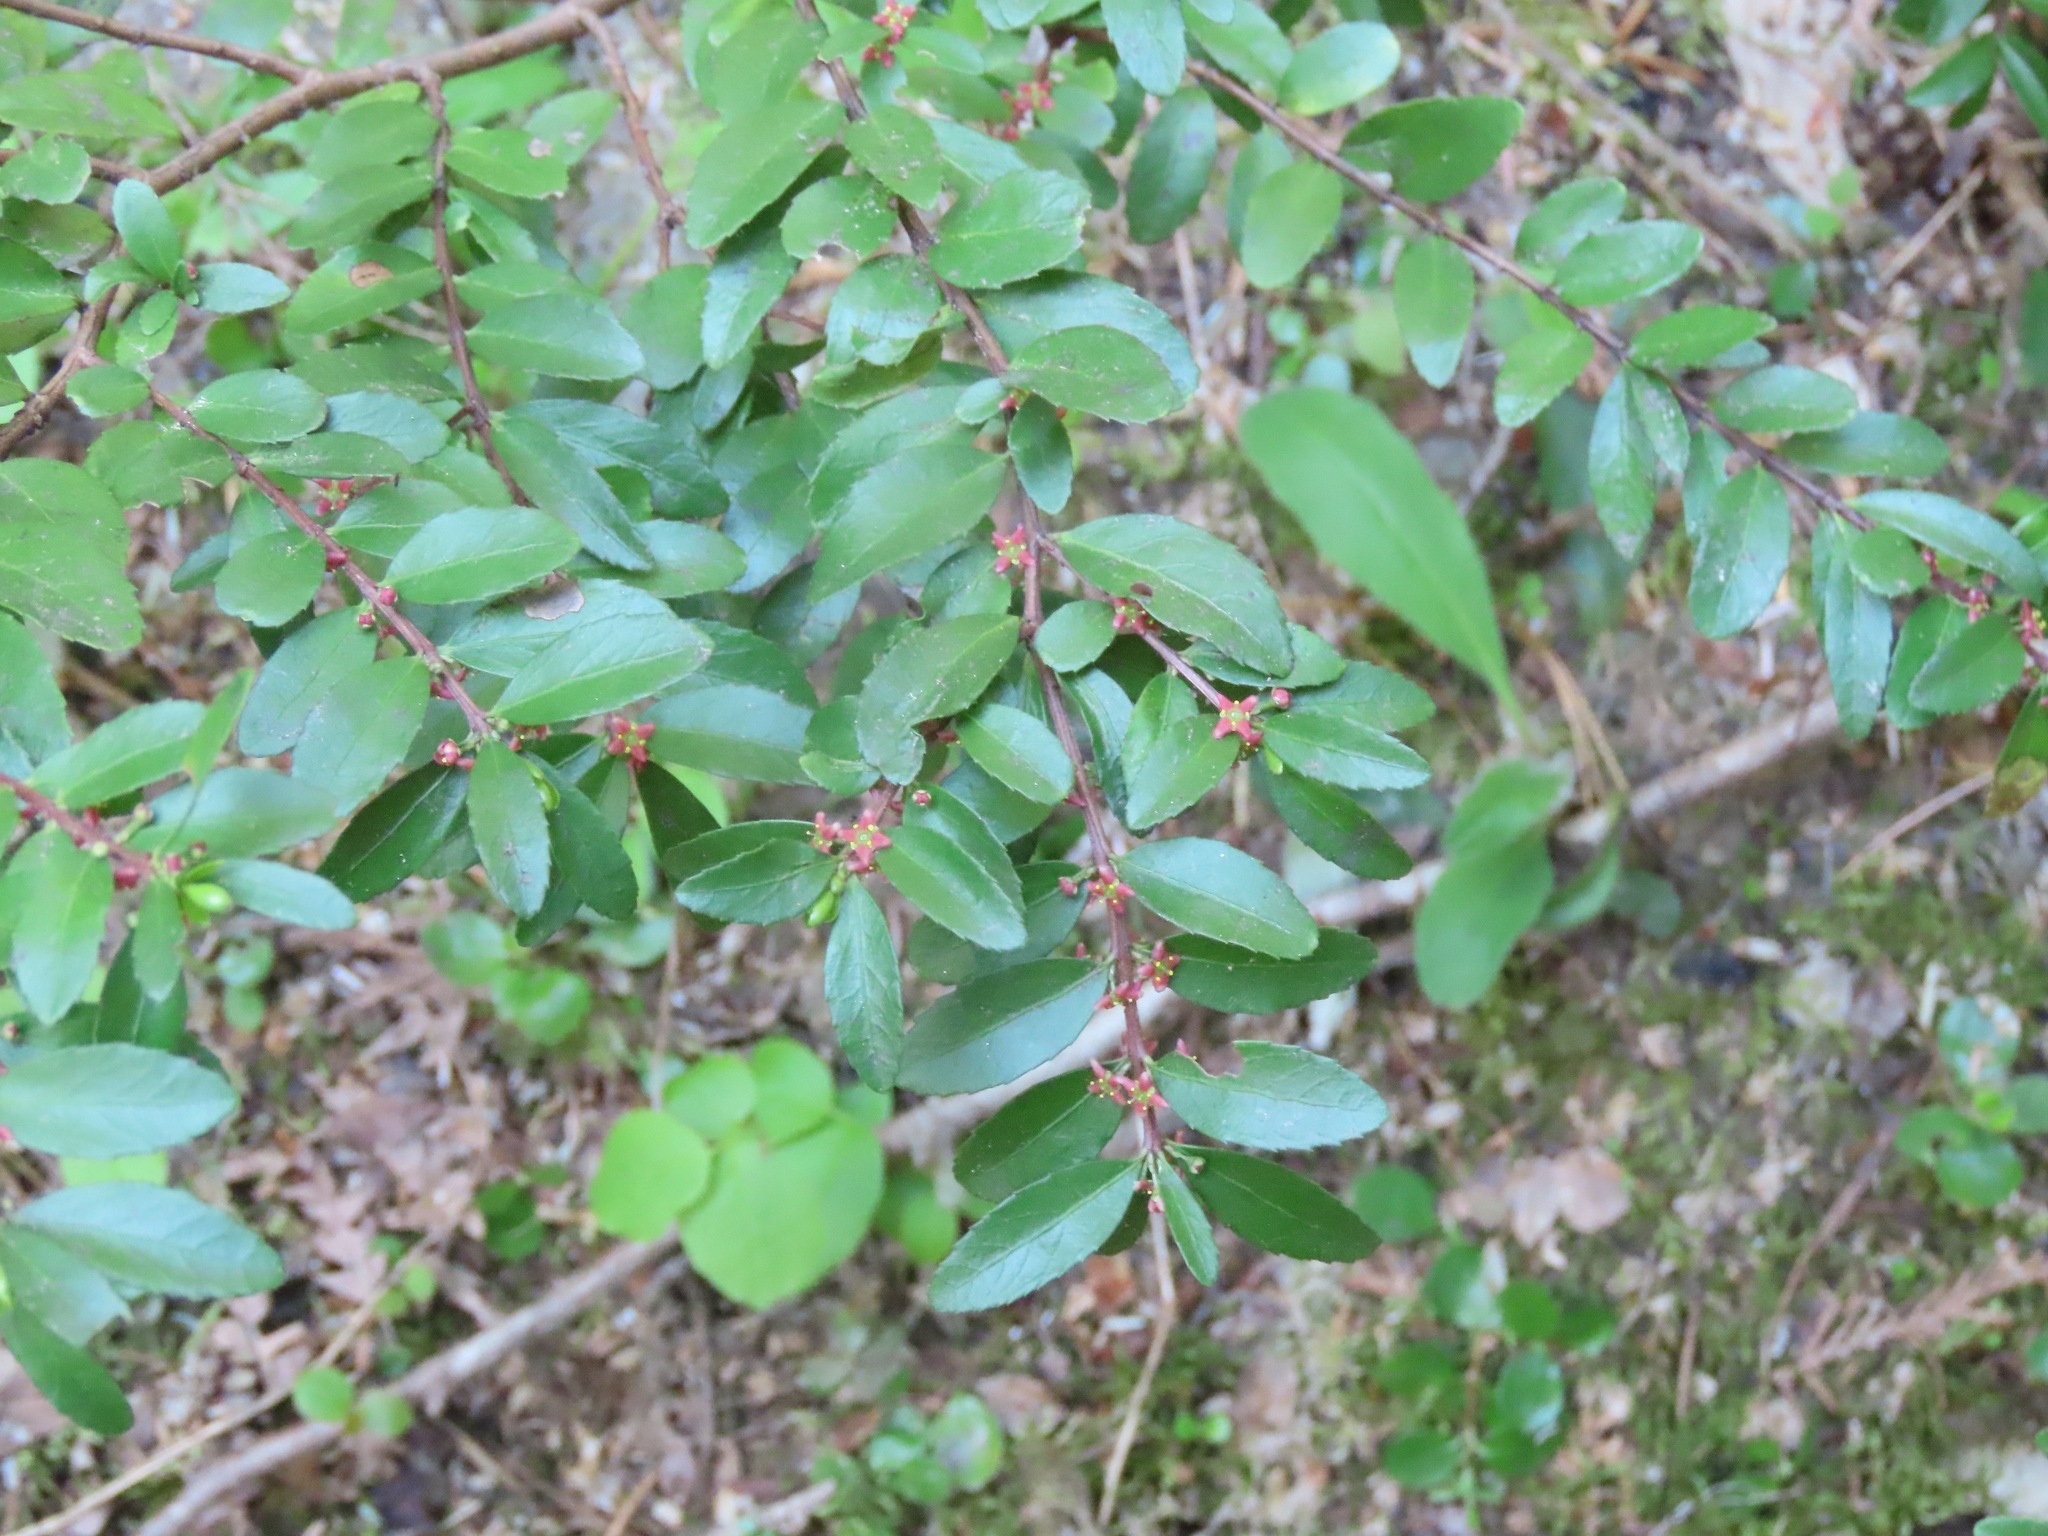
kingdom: Plantae
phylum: Tracheophyta
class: Magnoliopsida
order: Celastrales
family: Celastraceae
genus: Paxistima
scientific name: Paxistima myrsinites
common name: Mountain-lover
